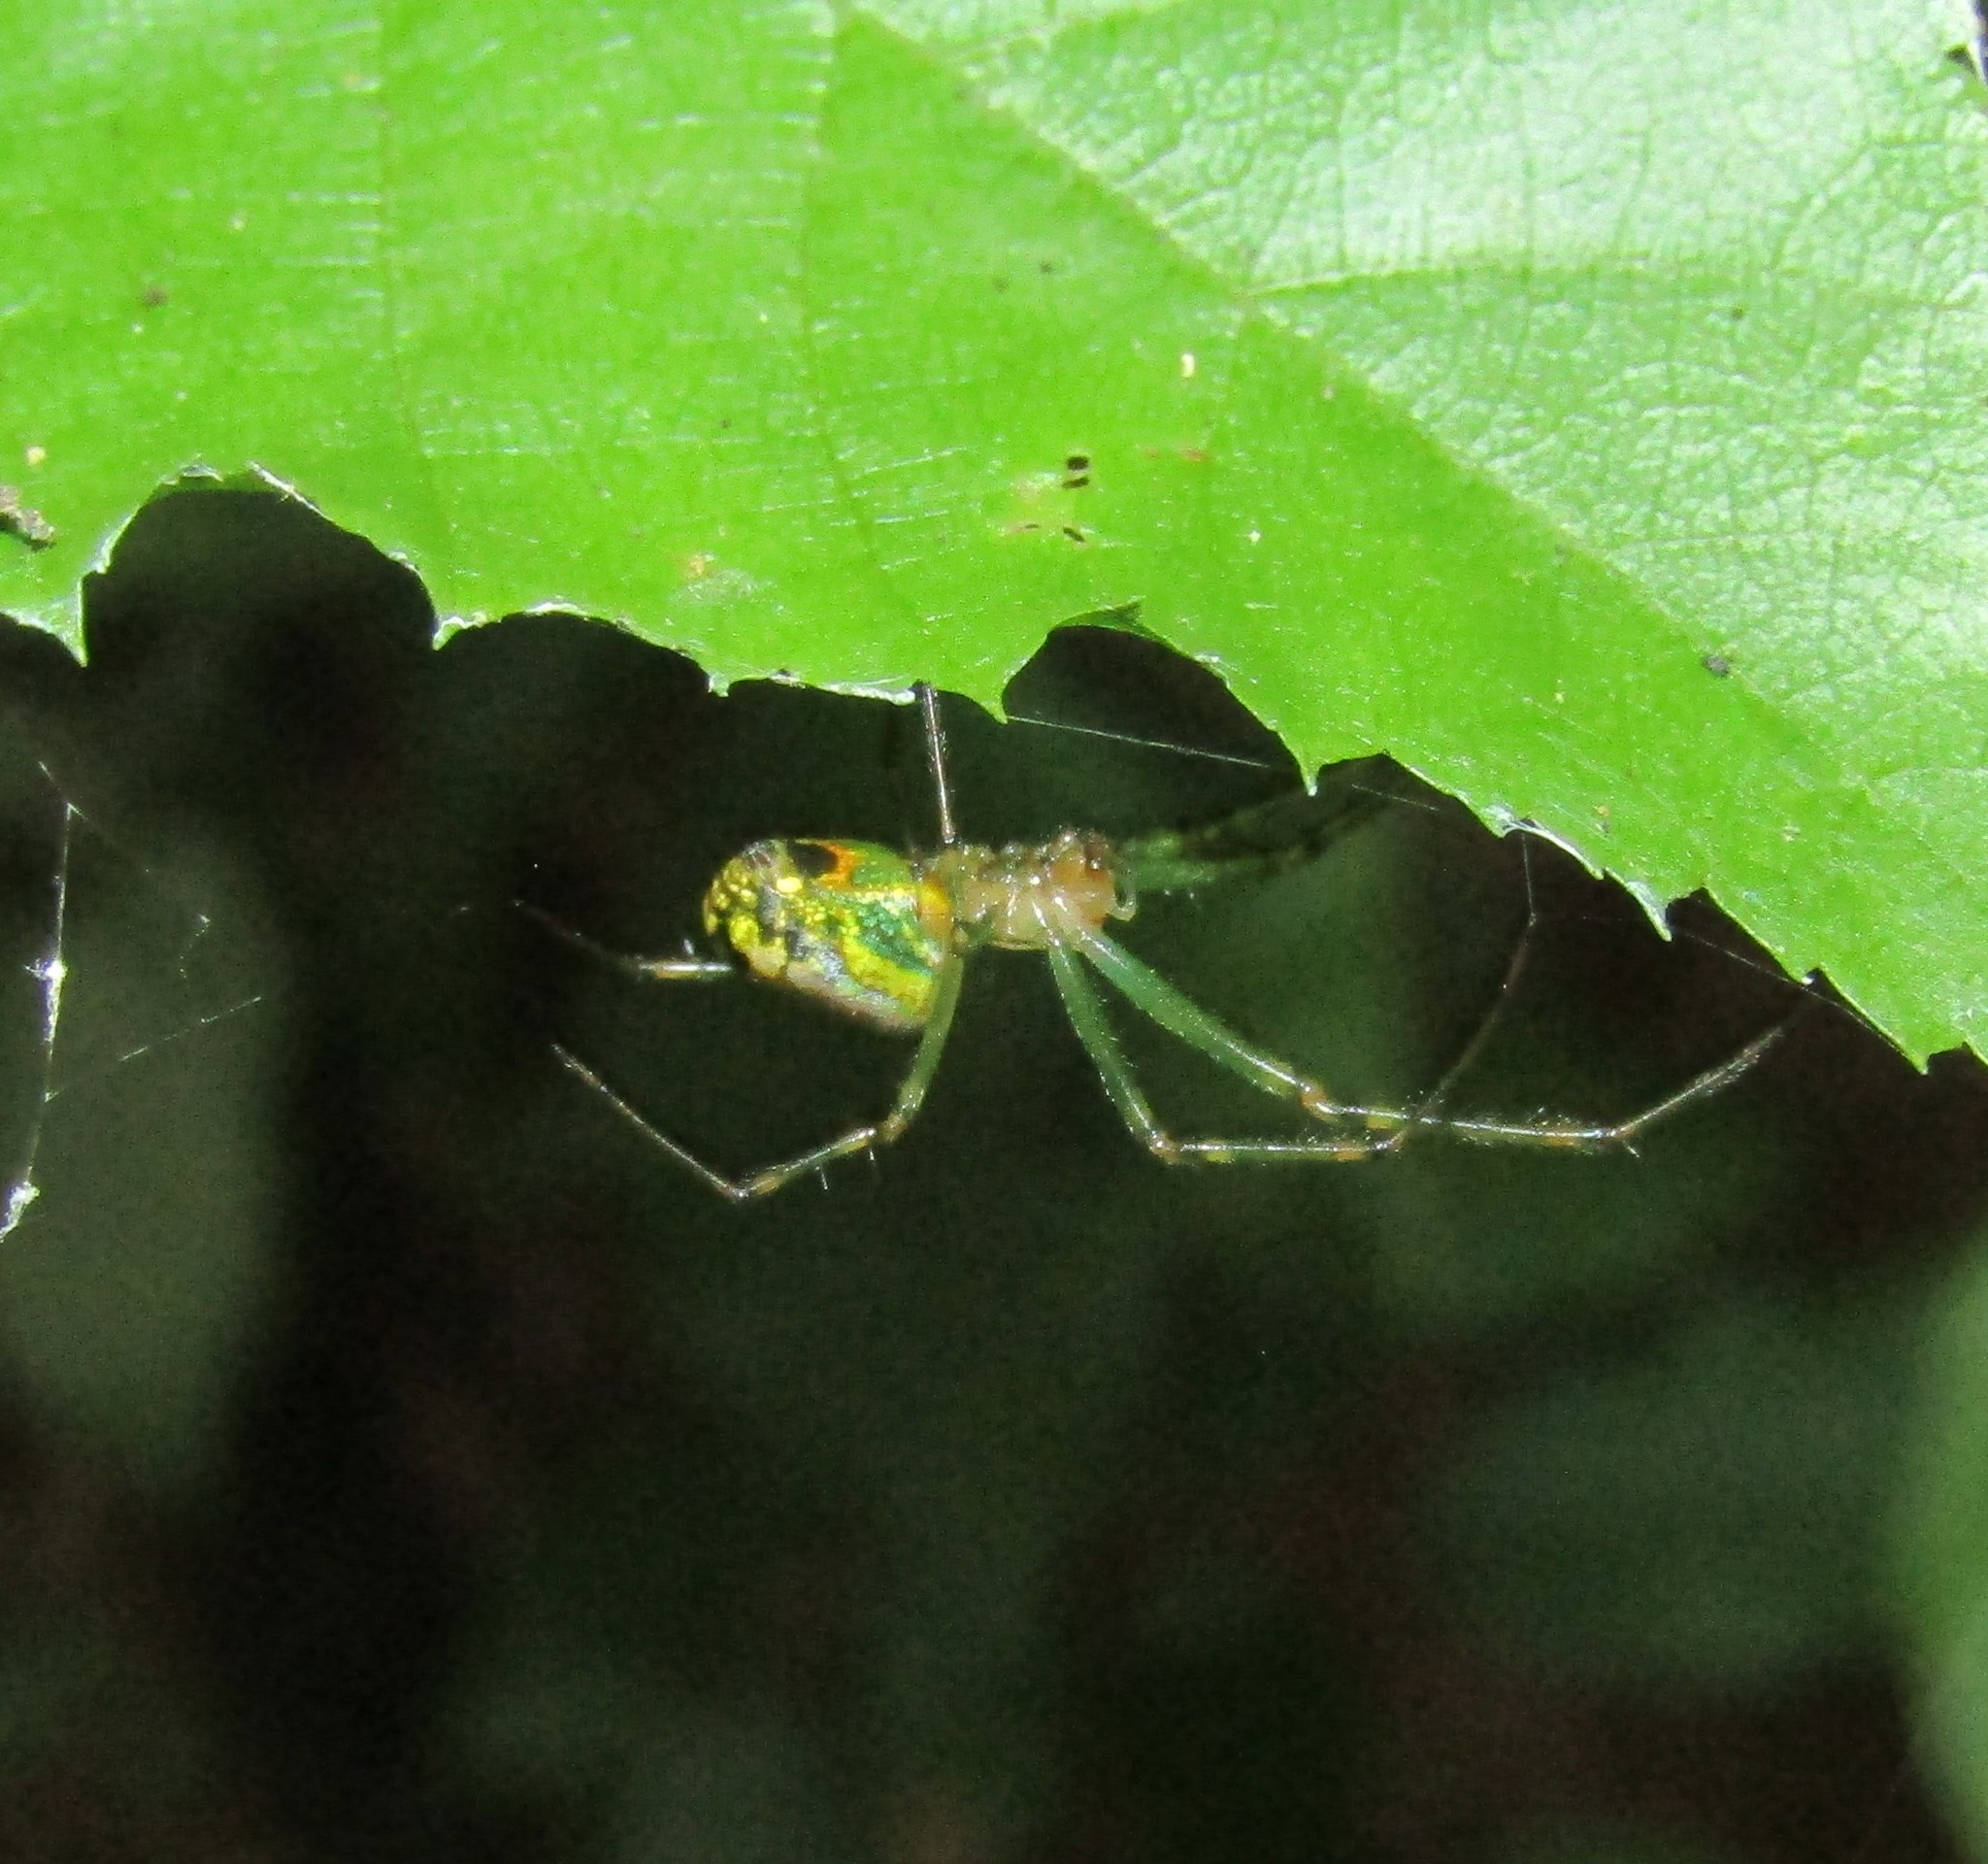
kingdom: Animalia
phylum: Arthropoda
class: Arachnida
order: Araneae
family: Tetragnathidae
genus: Leucauge
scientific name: Leucauge venusta
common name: Longjawed orb weavers
